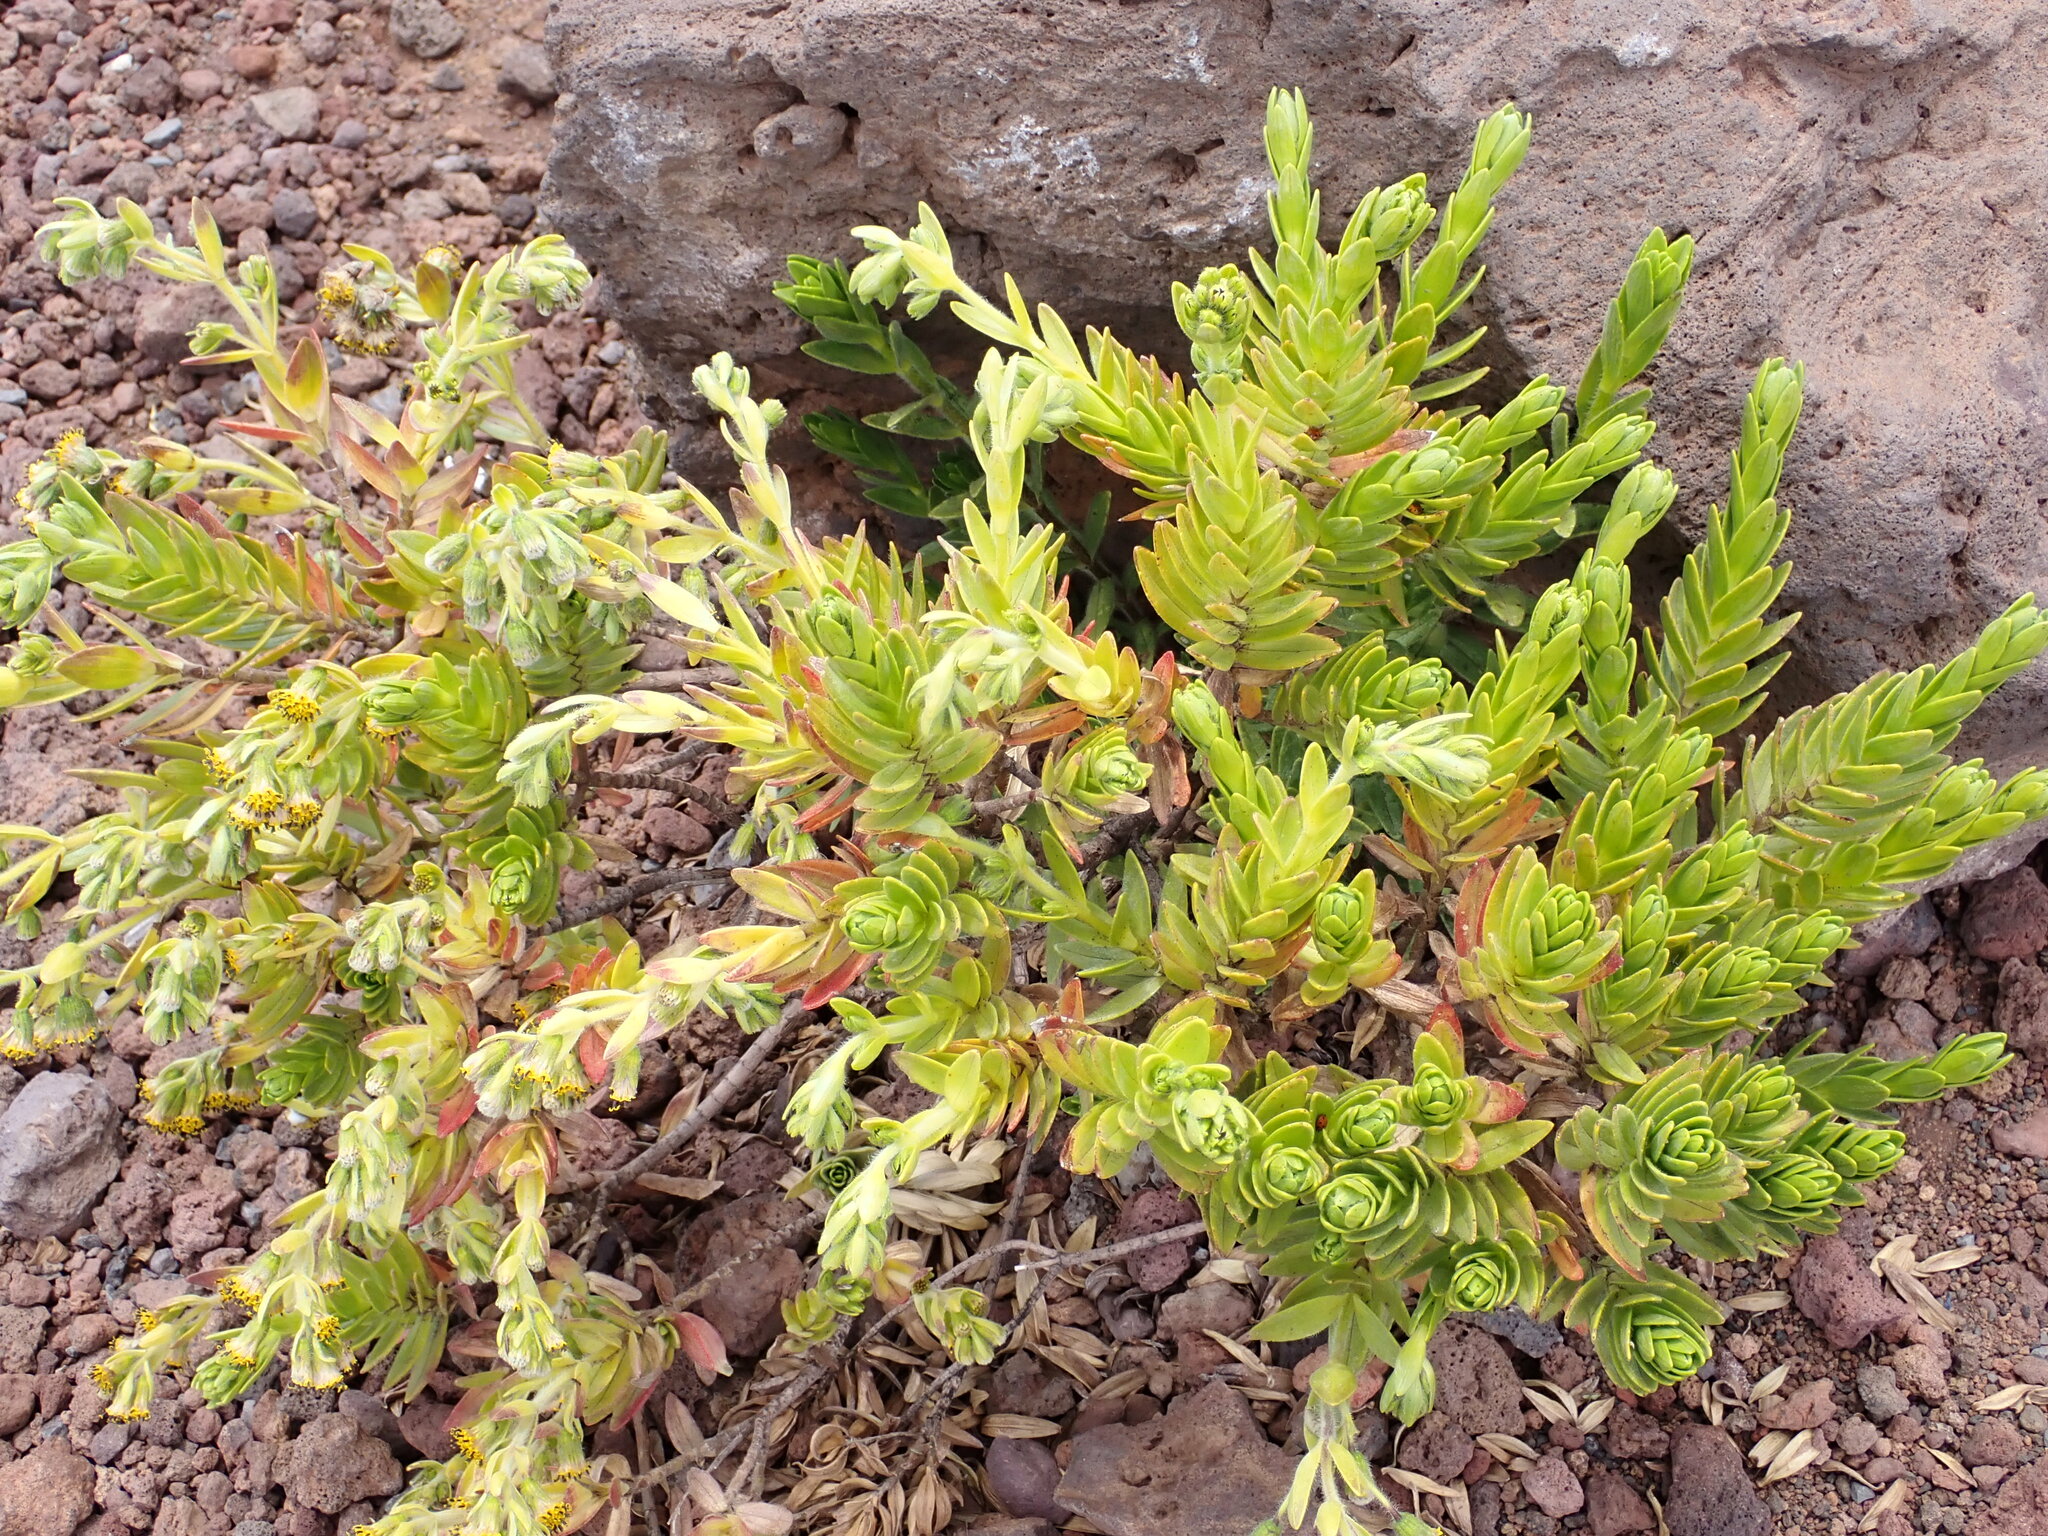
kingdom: Plantae
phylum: Tracheophyta
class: Magnoliopsida
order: Asterales
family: Asteraceae
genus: Dubautia
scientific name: Dubautia menziesii
